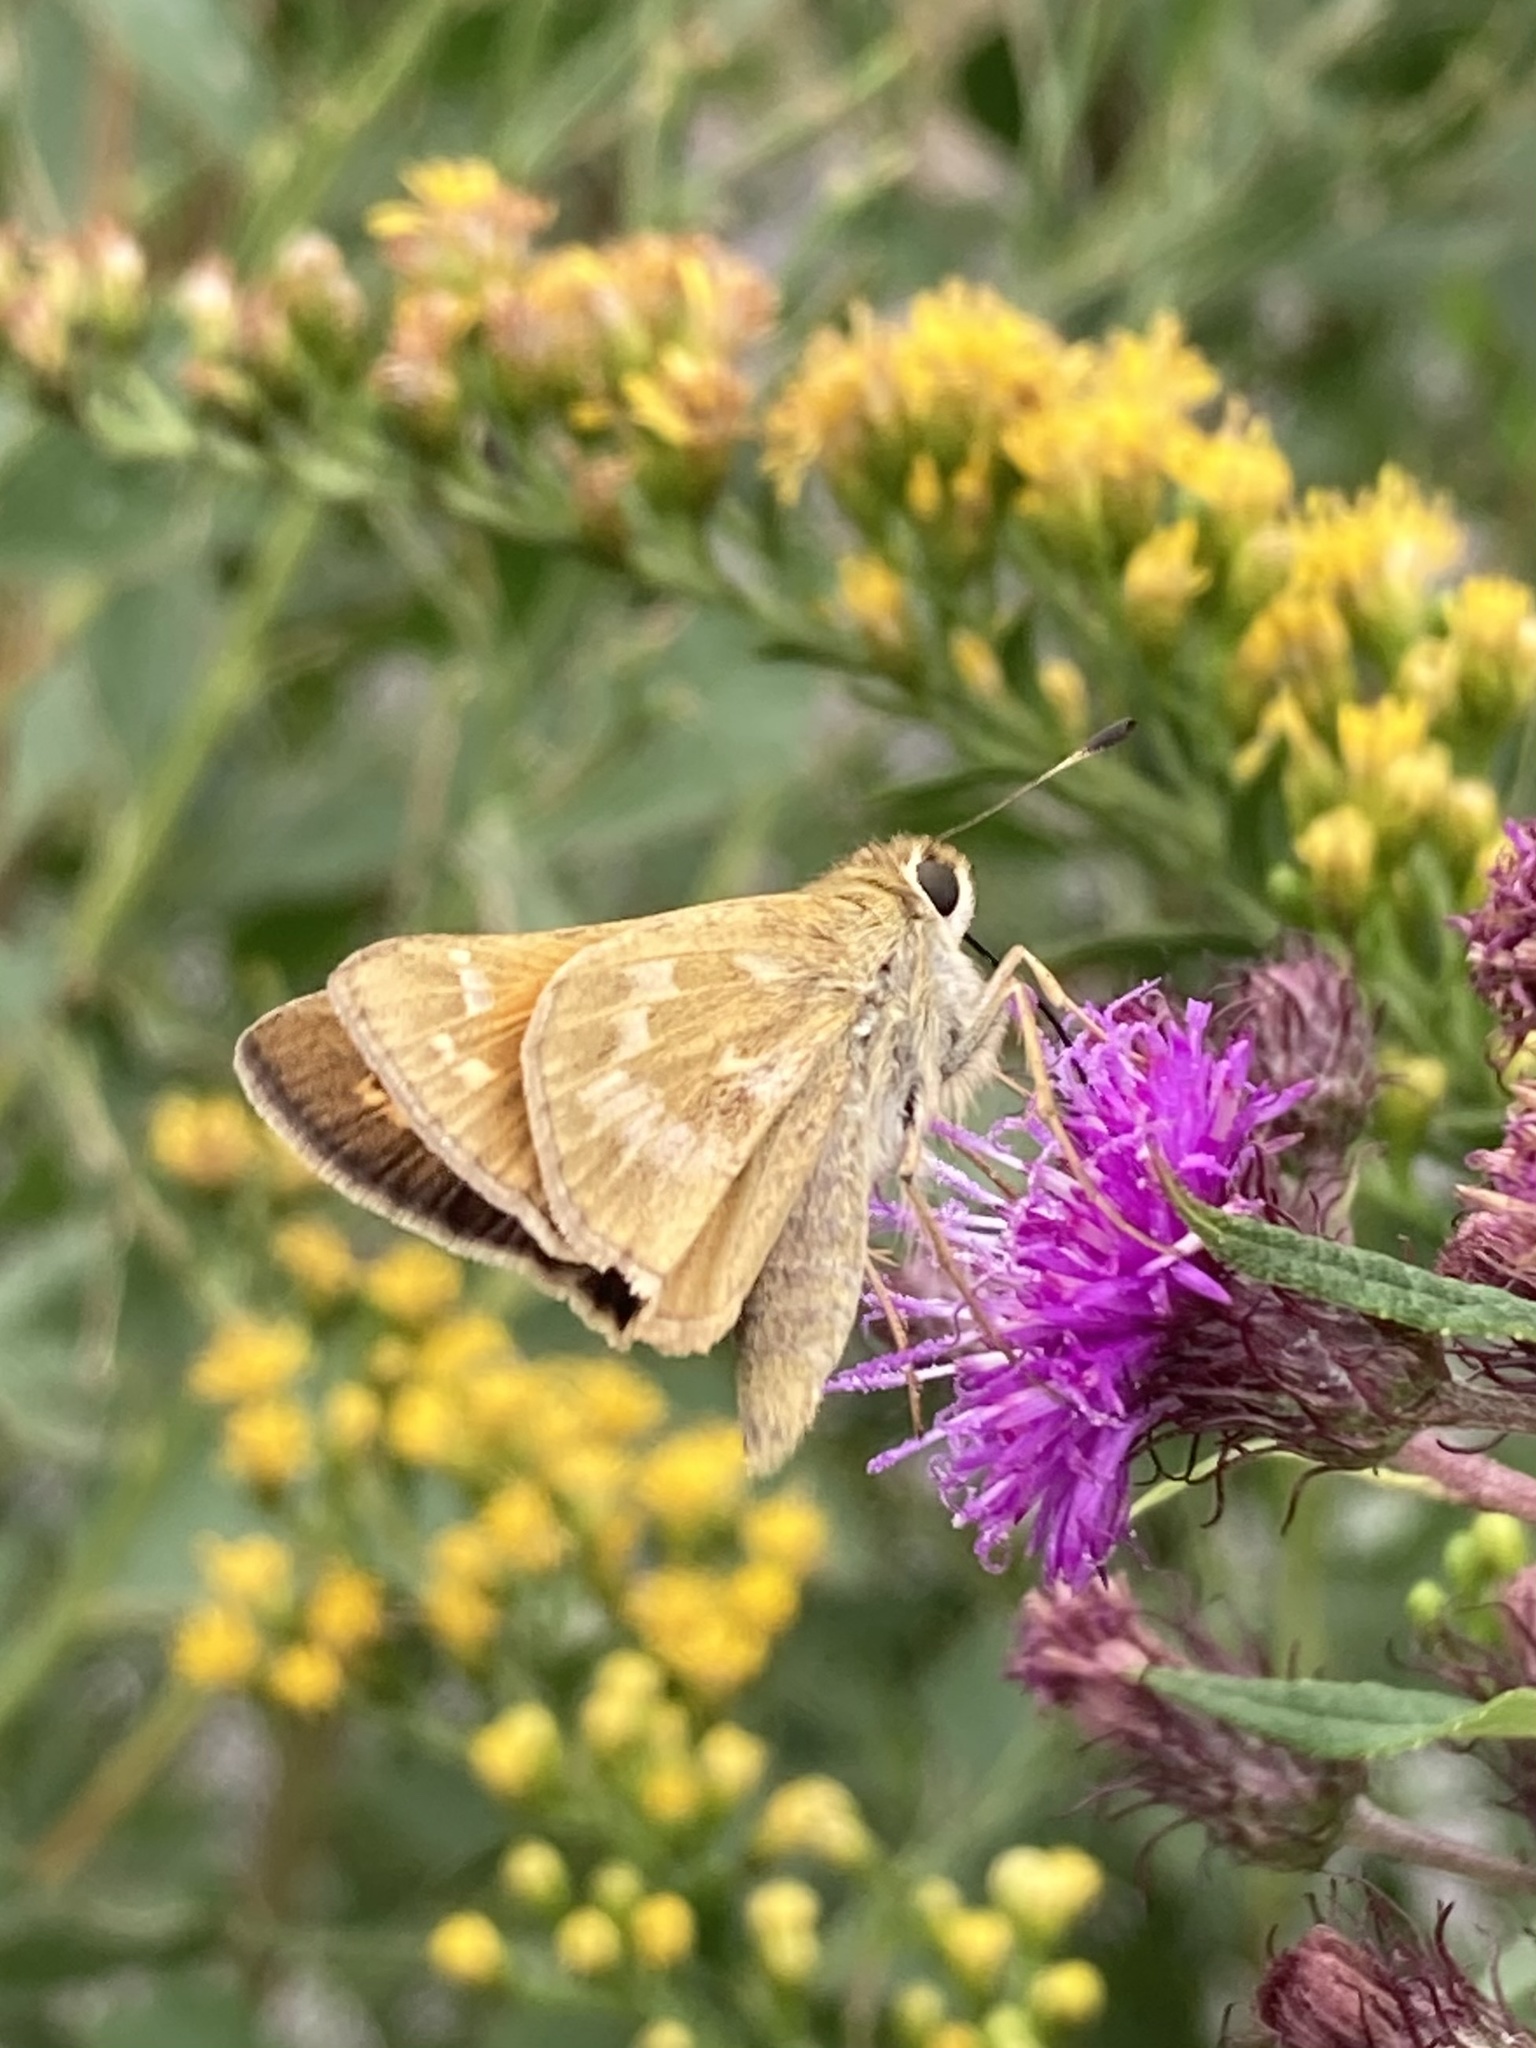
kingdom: Animalia
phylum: Arthropoda
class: Insecta
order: Lepidoptera
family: Hesperiidae
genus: Atalopedes
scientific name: Atalopedes
